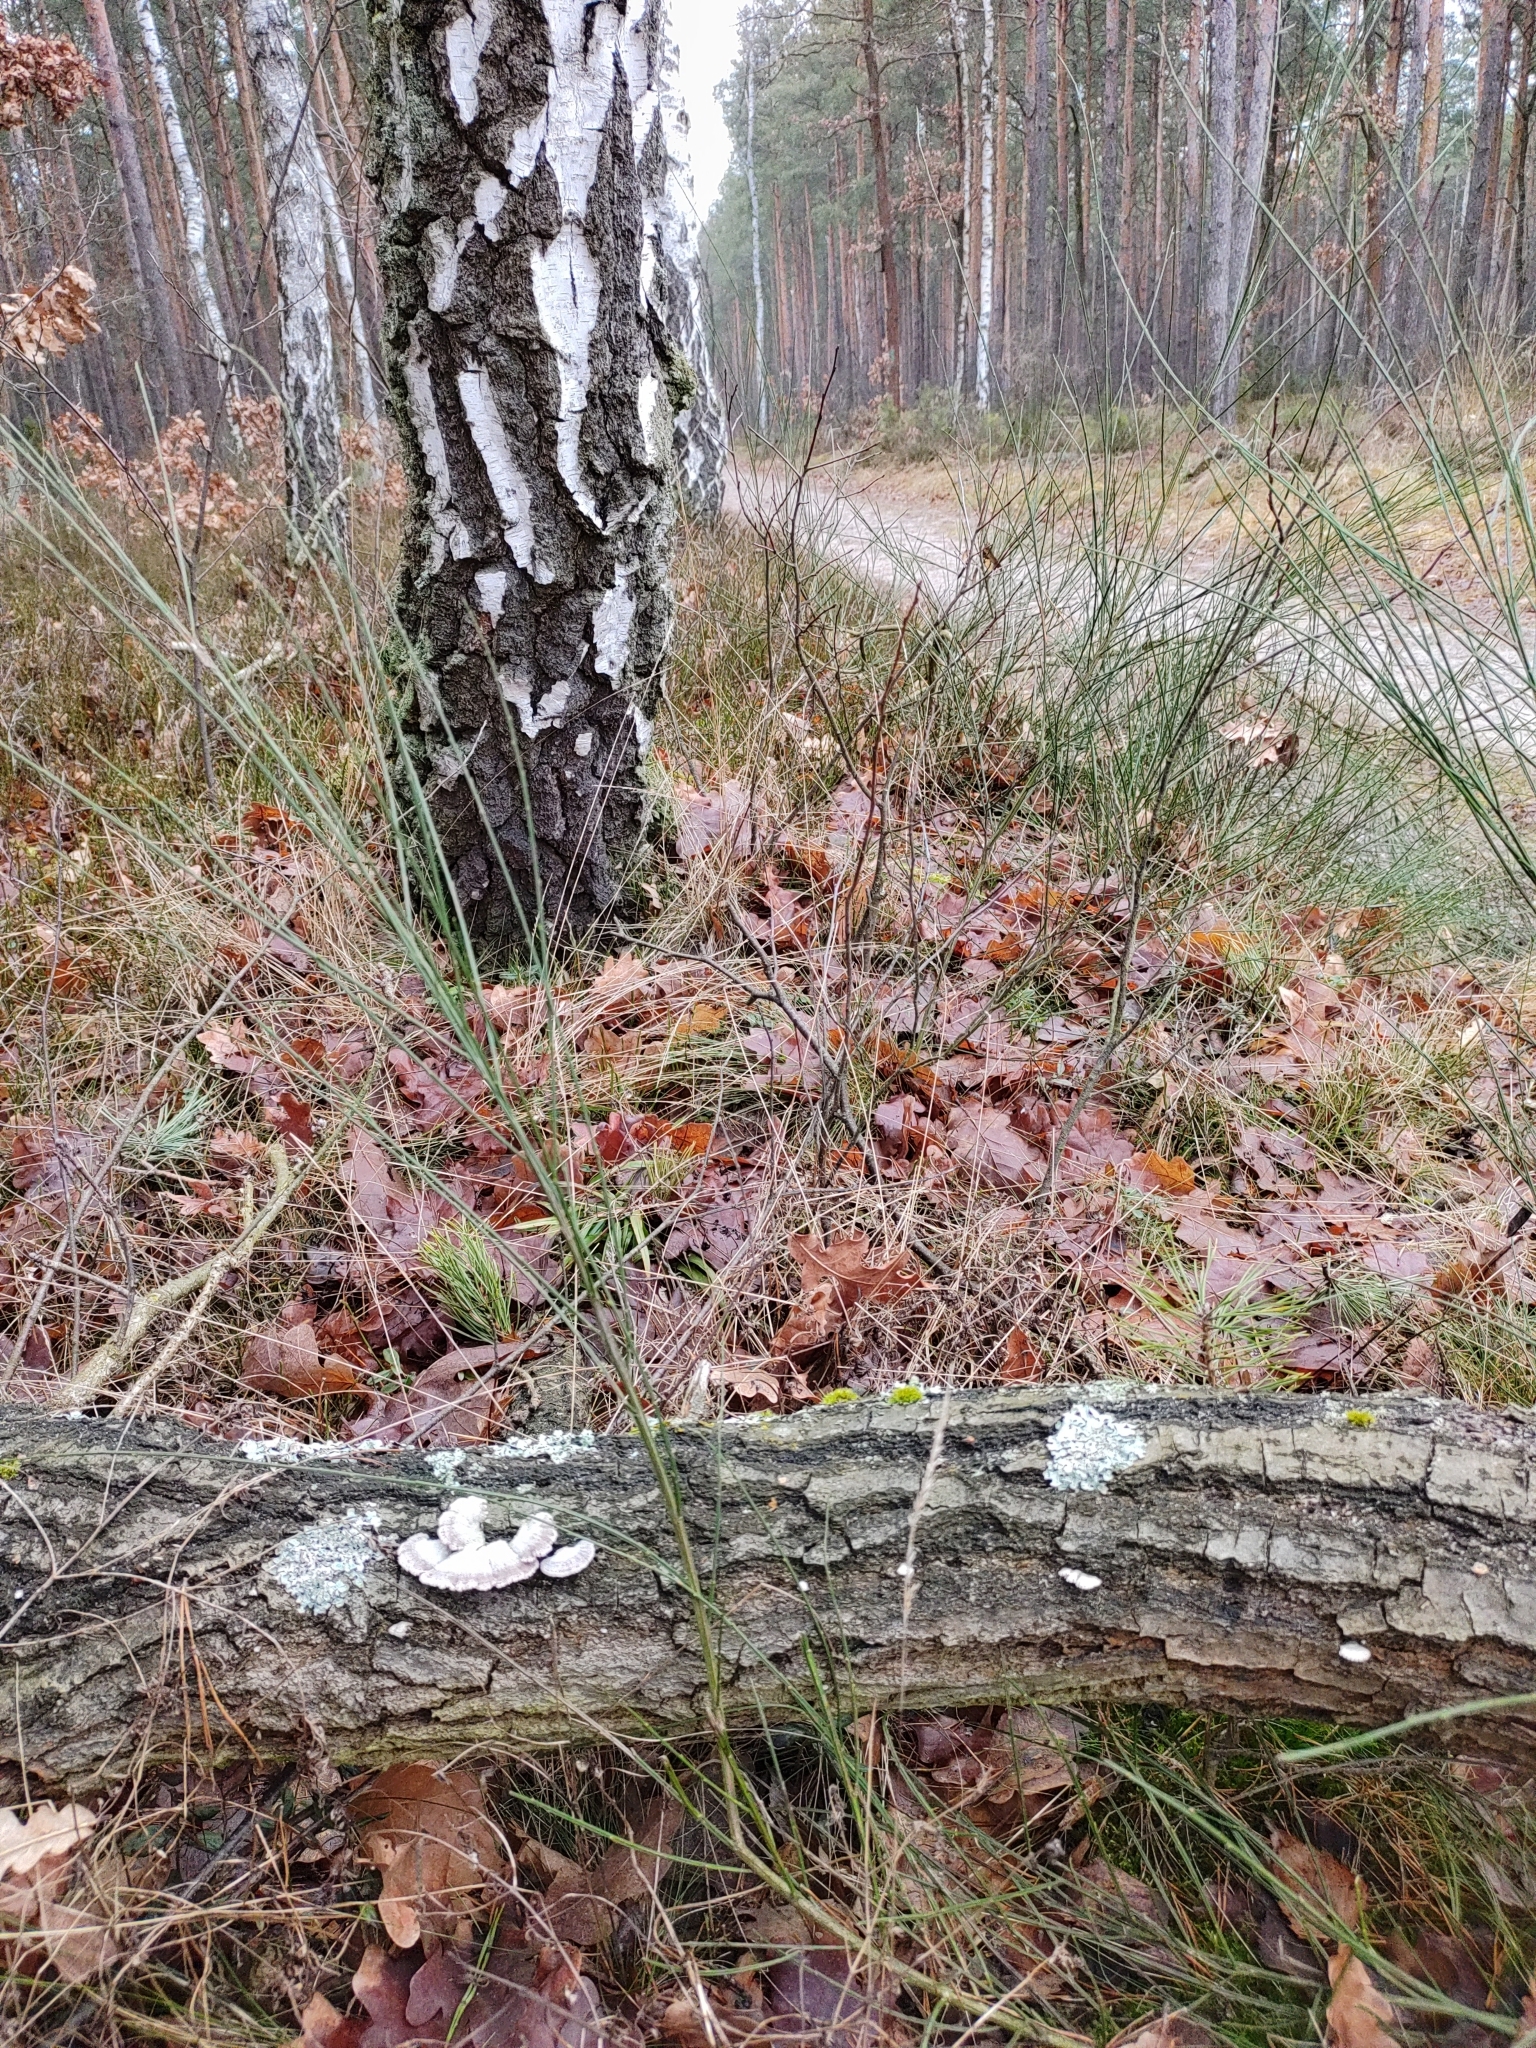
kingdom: Fungi
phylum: Basidiomycota
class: Agaricomycetes
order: Agaricales
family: Schizophyllaceae
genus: Schizophyllum
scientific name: Schizophyllum commune
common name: Common porecrust
